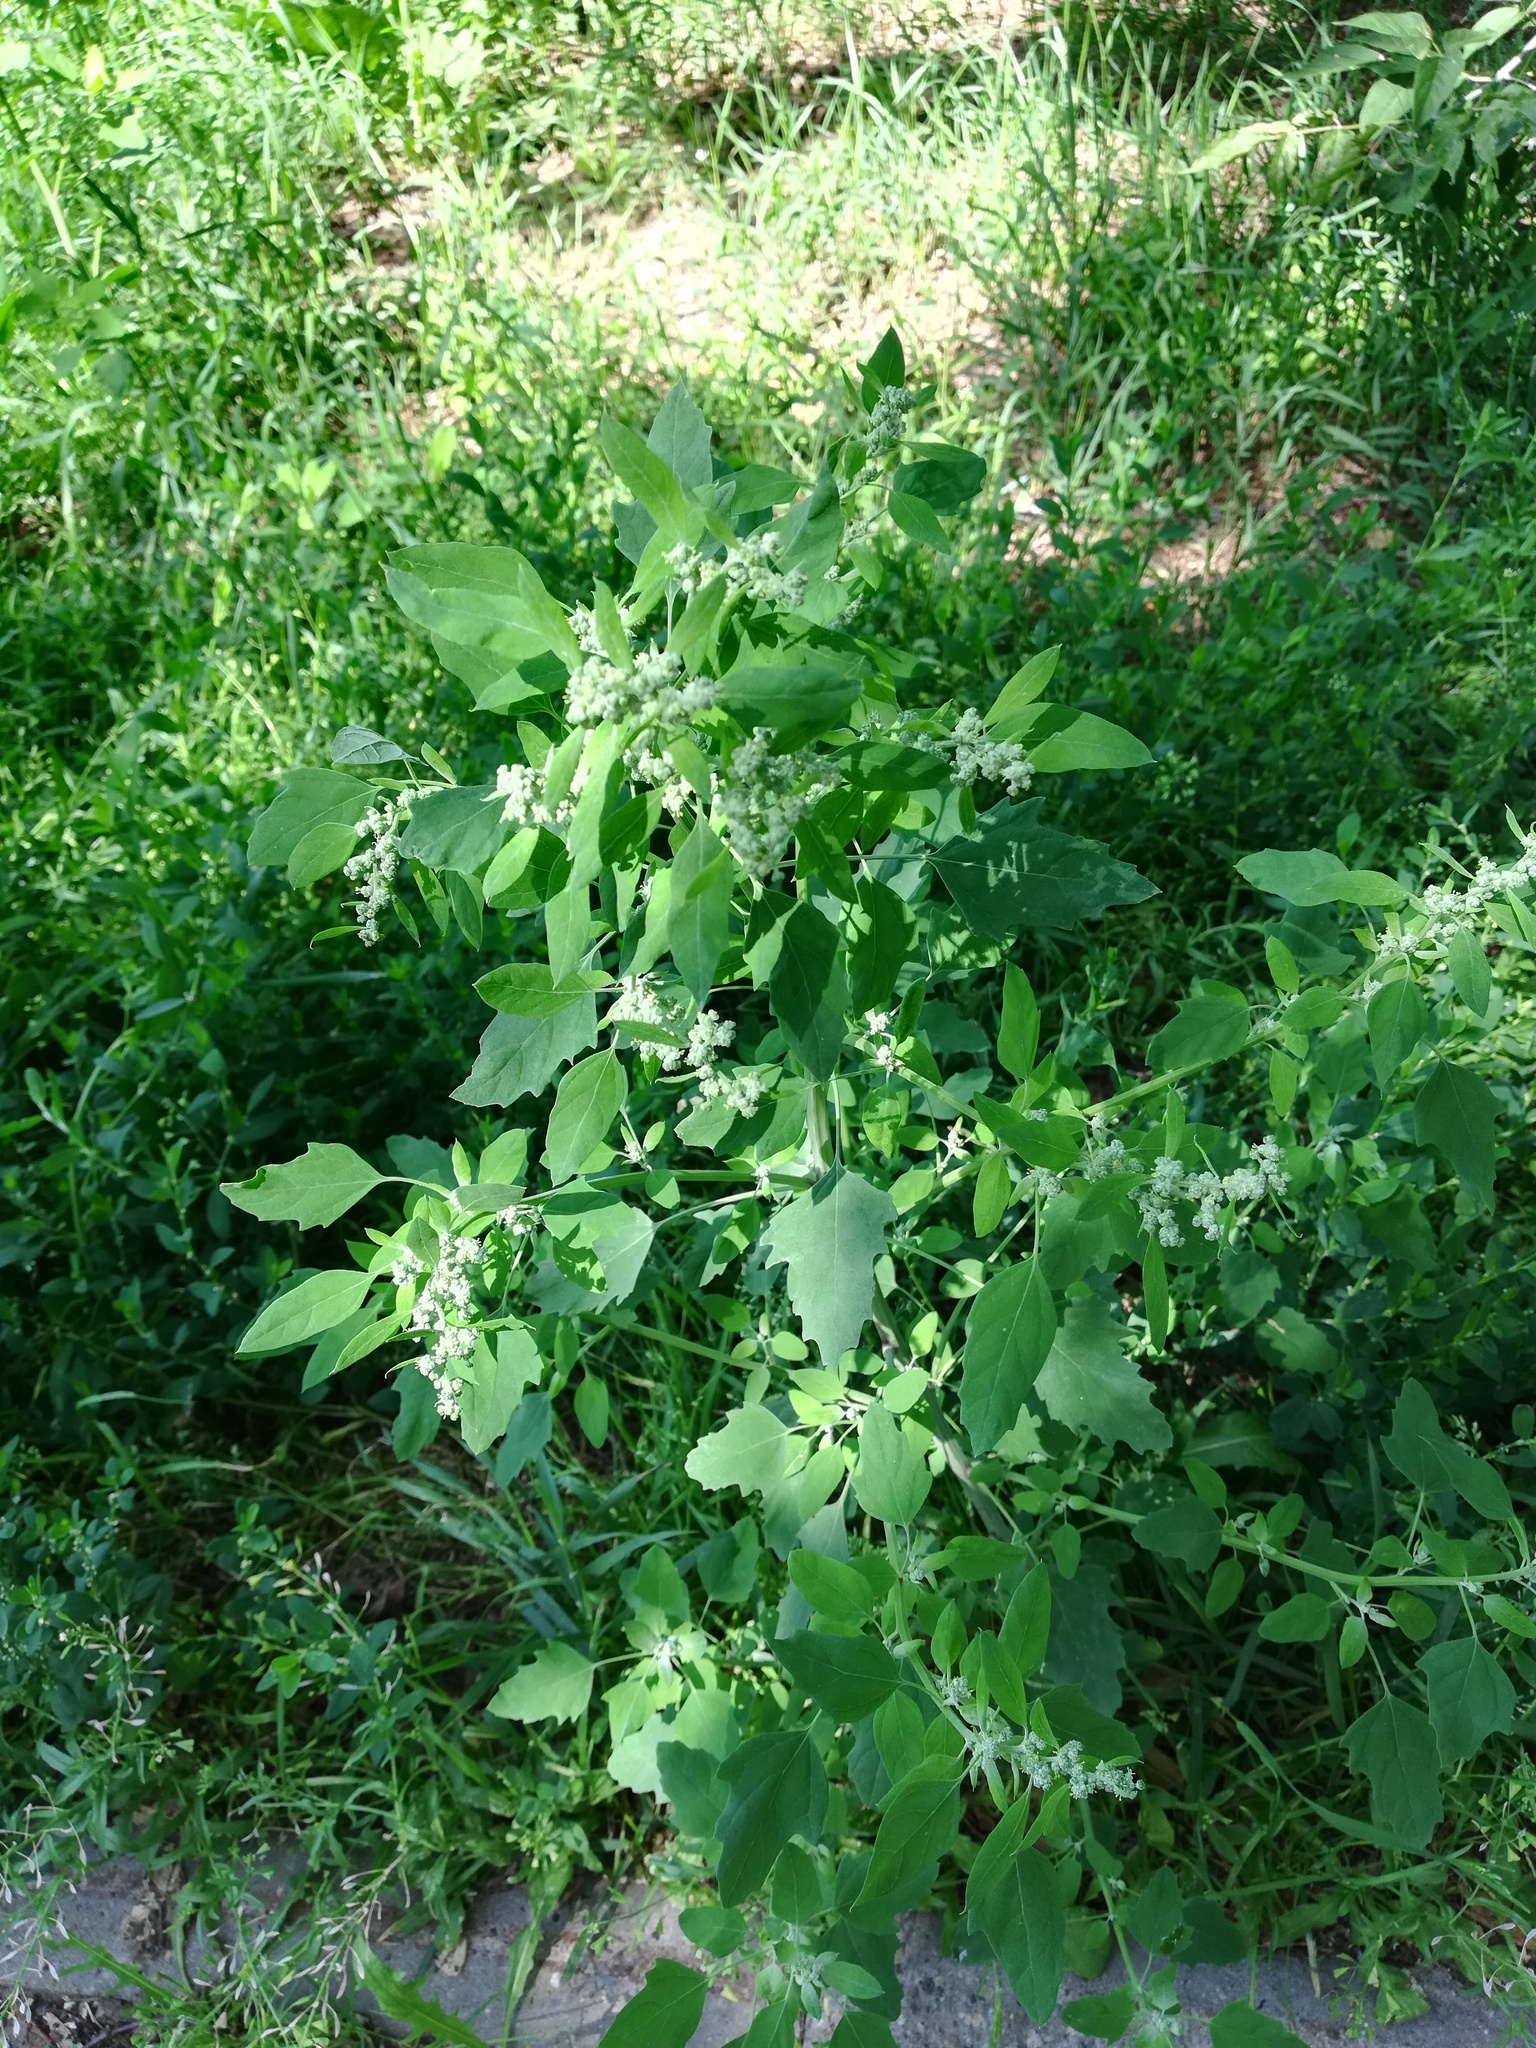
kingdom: Plantae
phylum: Tracheophyta
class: Magnoliopsida
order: Caryophyllales
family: Amaranthaceae
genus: Chenopodium
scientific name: Chenopodium album
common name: Fat-hen
